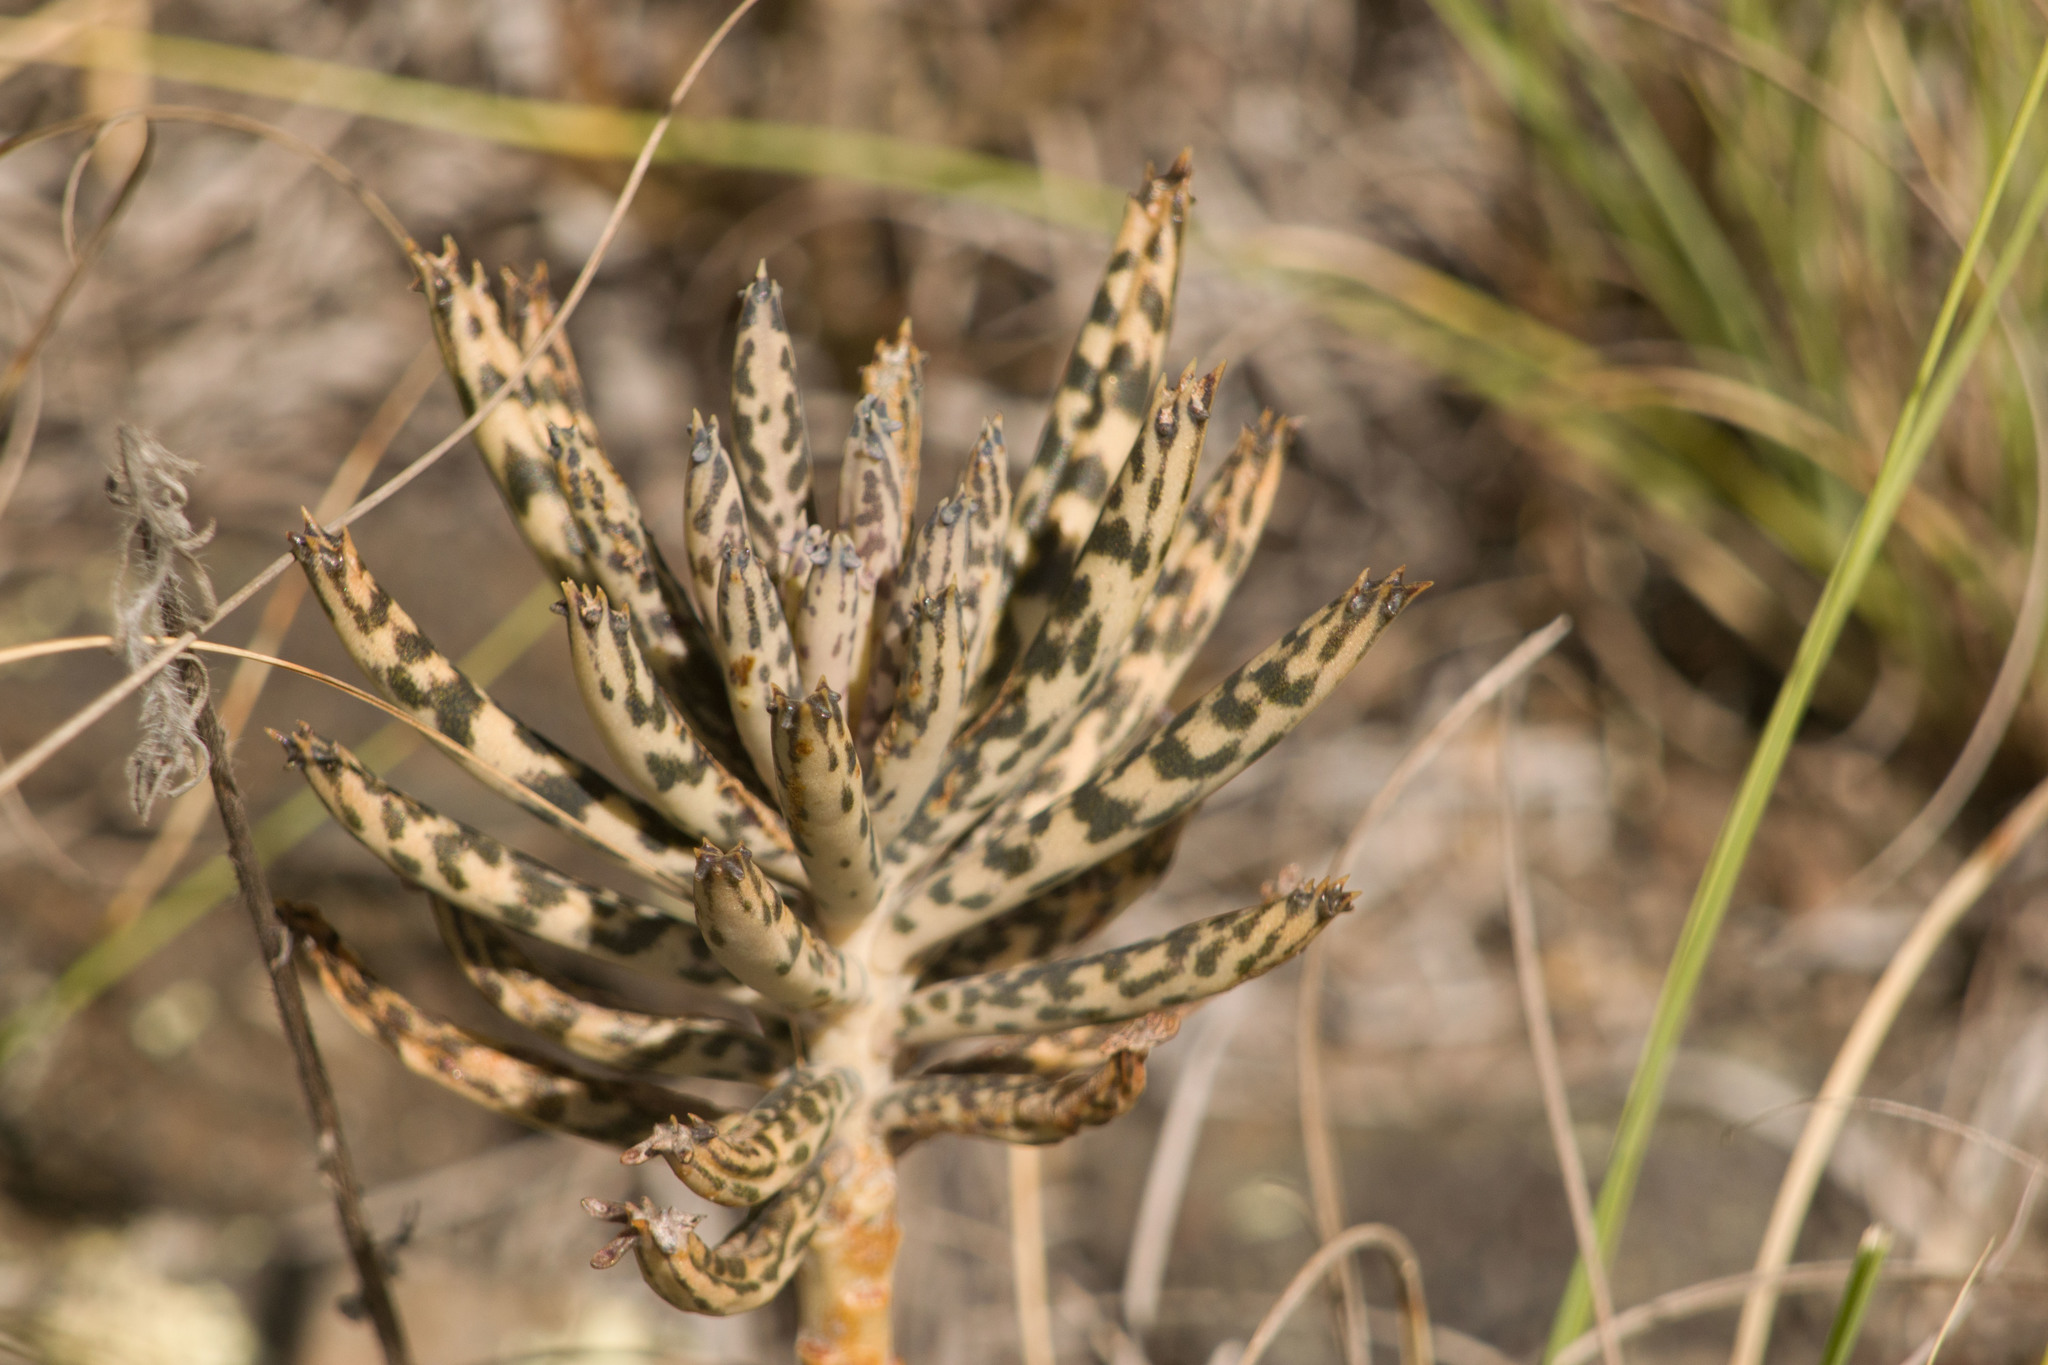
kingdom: Plantae
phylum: Tracheophyta
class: Magnoliopsida
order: Saxifragales
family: Crassulaceae
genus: Kalanchoe
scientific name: Kalanchoe delagoensis
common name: Chandelier plant
